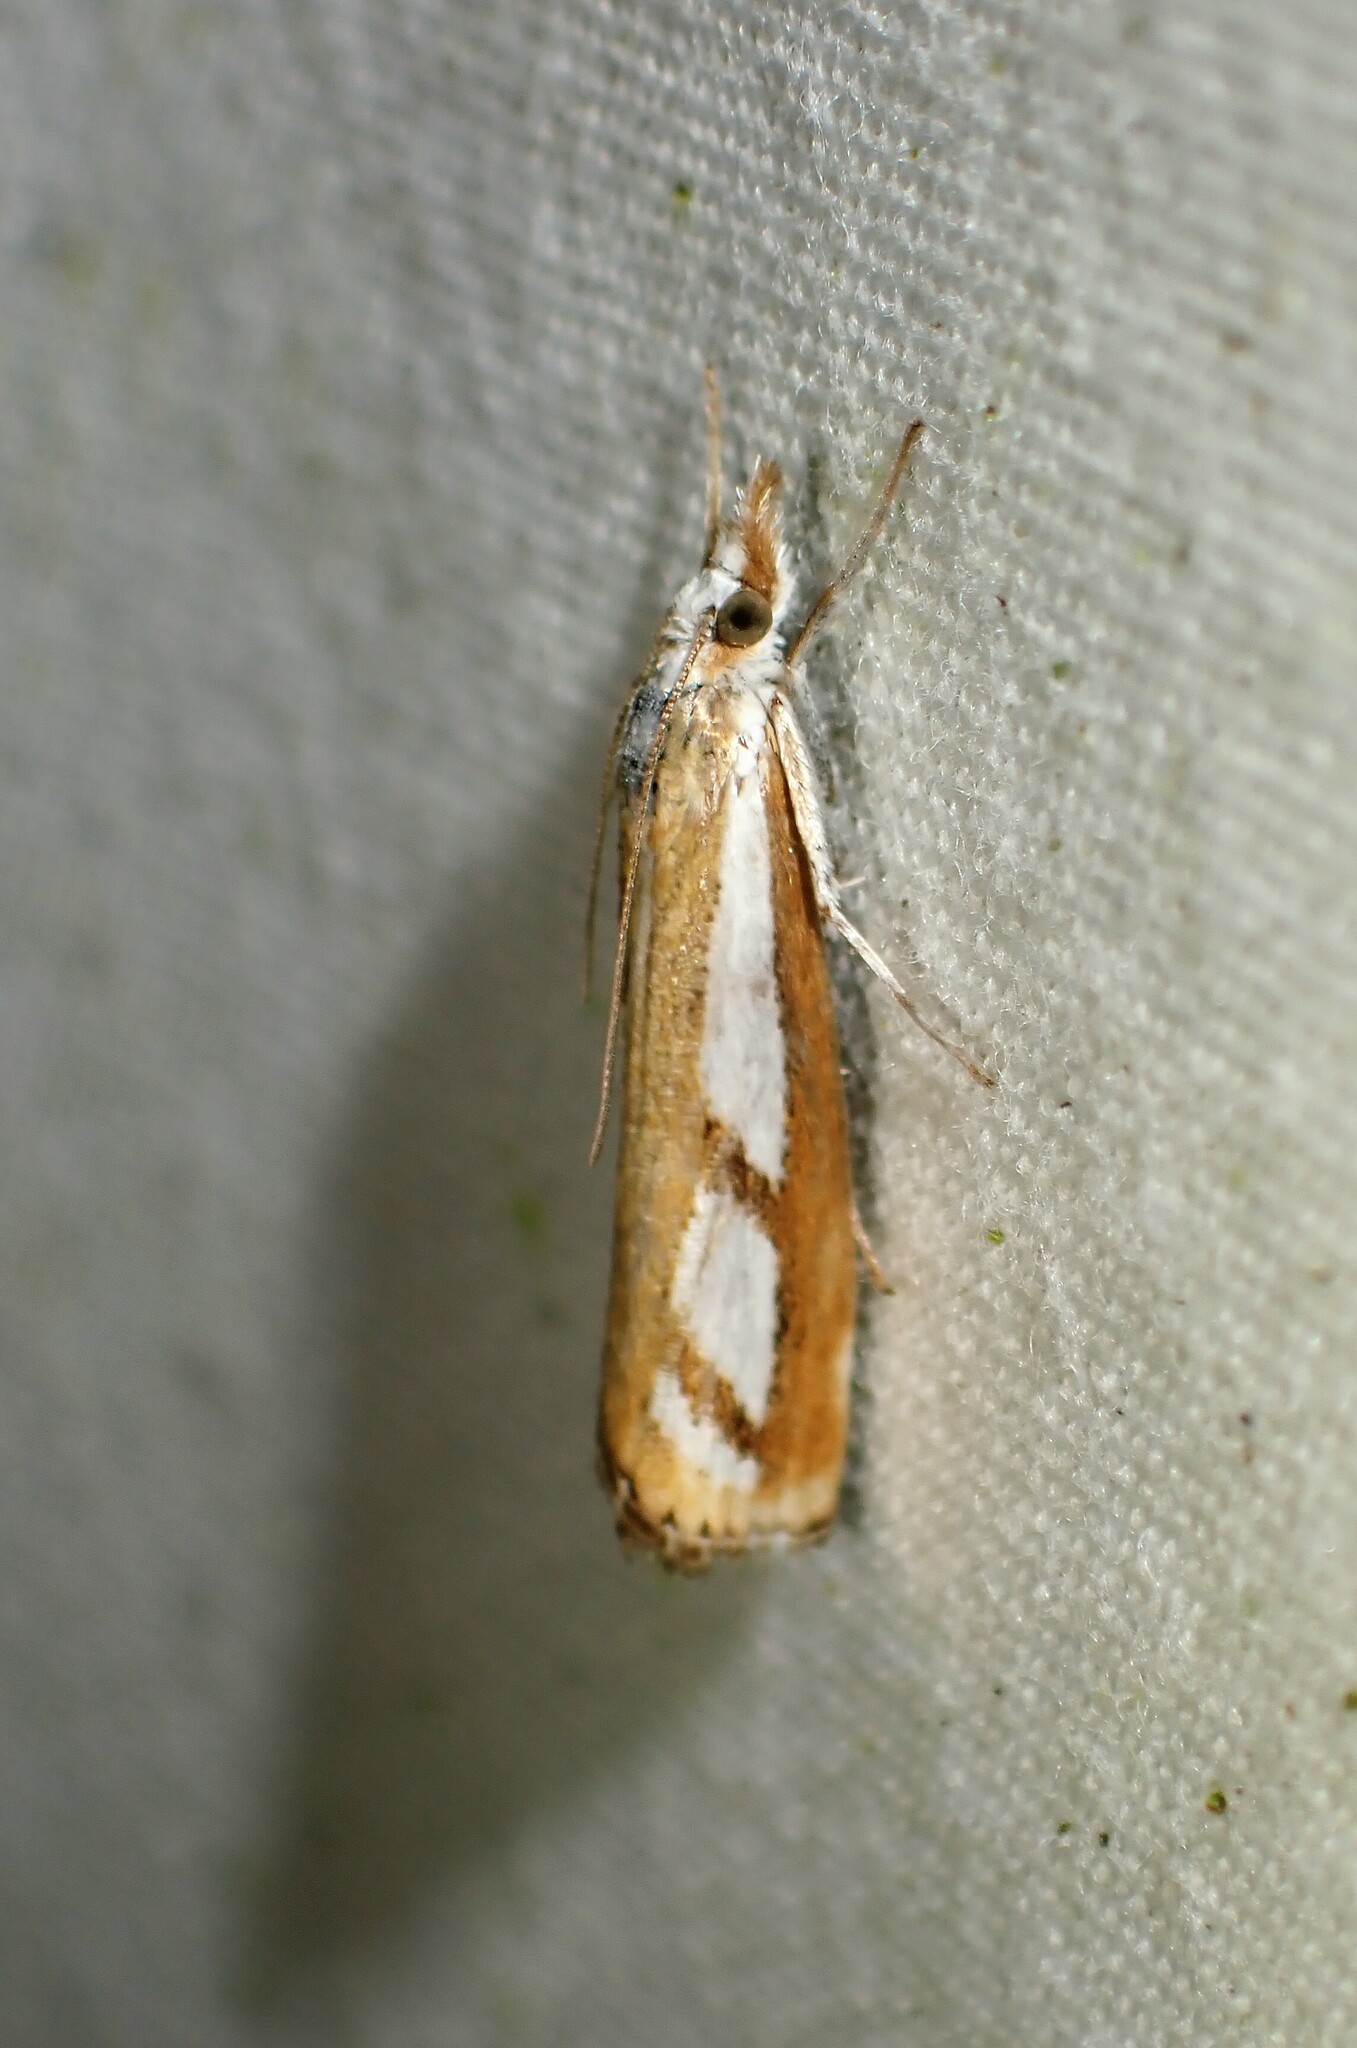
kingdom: Animalia
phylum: Arthropoda
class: Insecta
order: Lepidoptera
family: Crambidae
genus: Catoptria
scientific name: Catoptria latiradiellus
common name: Two-banded catoptria moth
